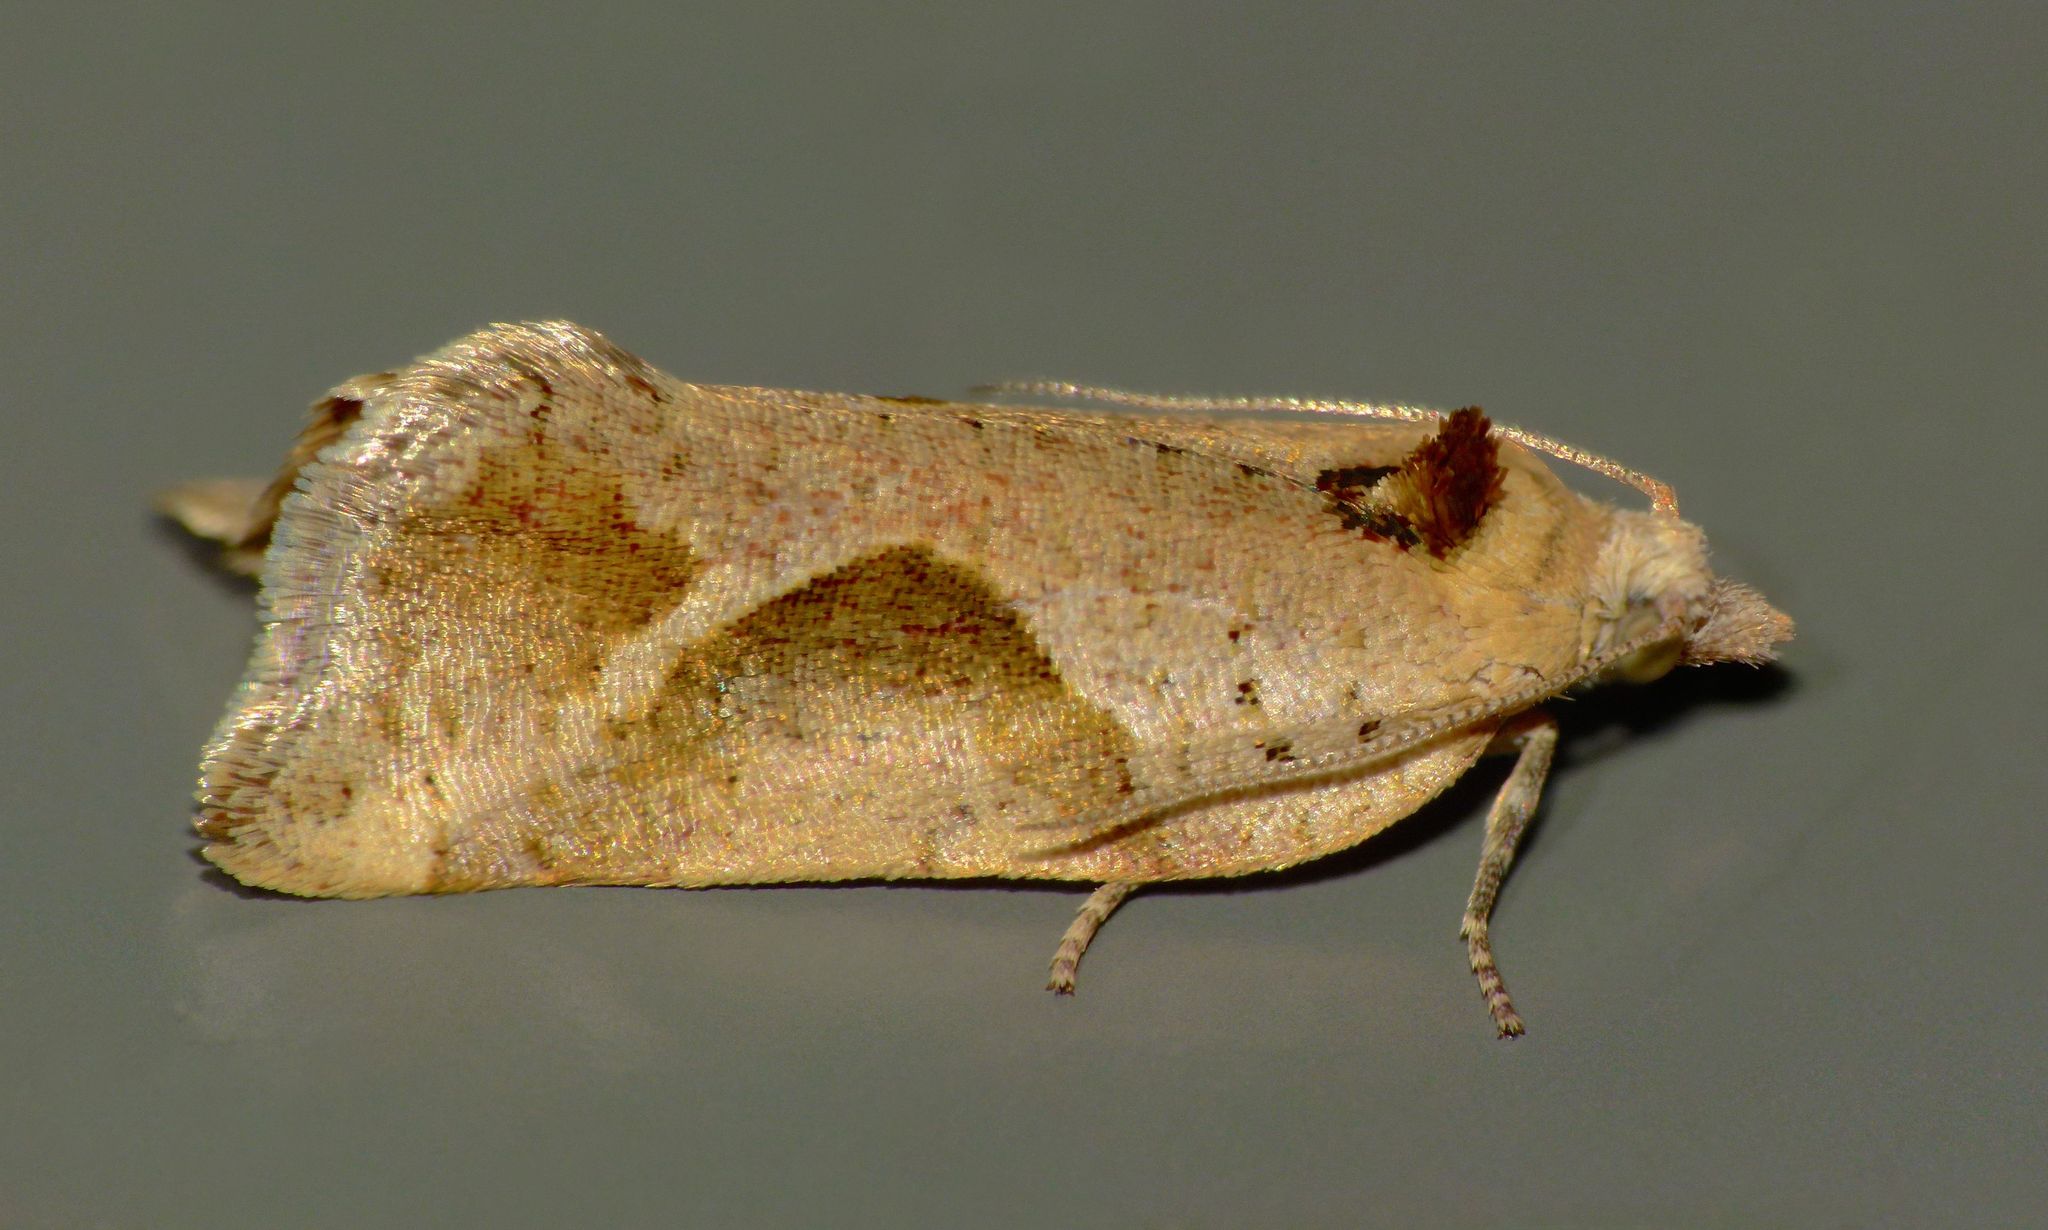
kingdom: Animalia
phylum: Arthropoda
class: Insecta
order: Lepidoptera
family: Tortricidae
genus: Pyrgotis
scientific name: Pyrgotis plagiatana
